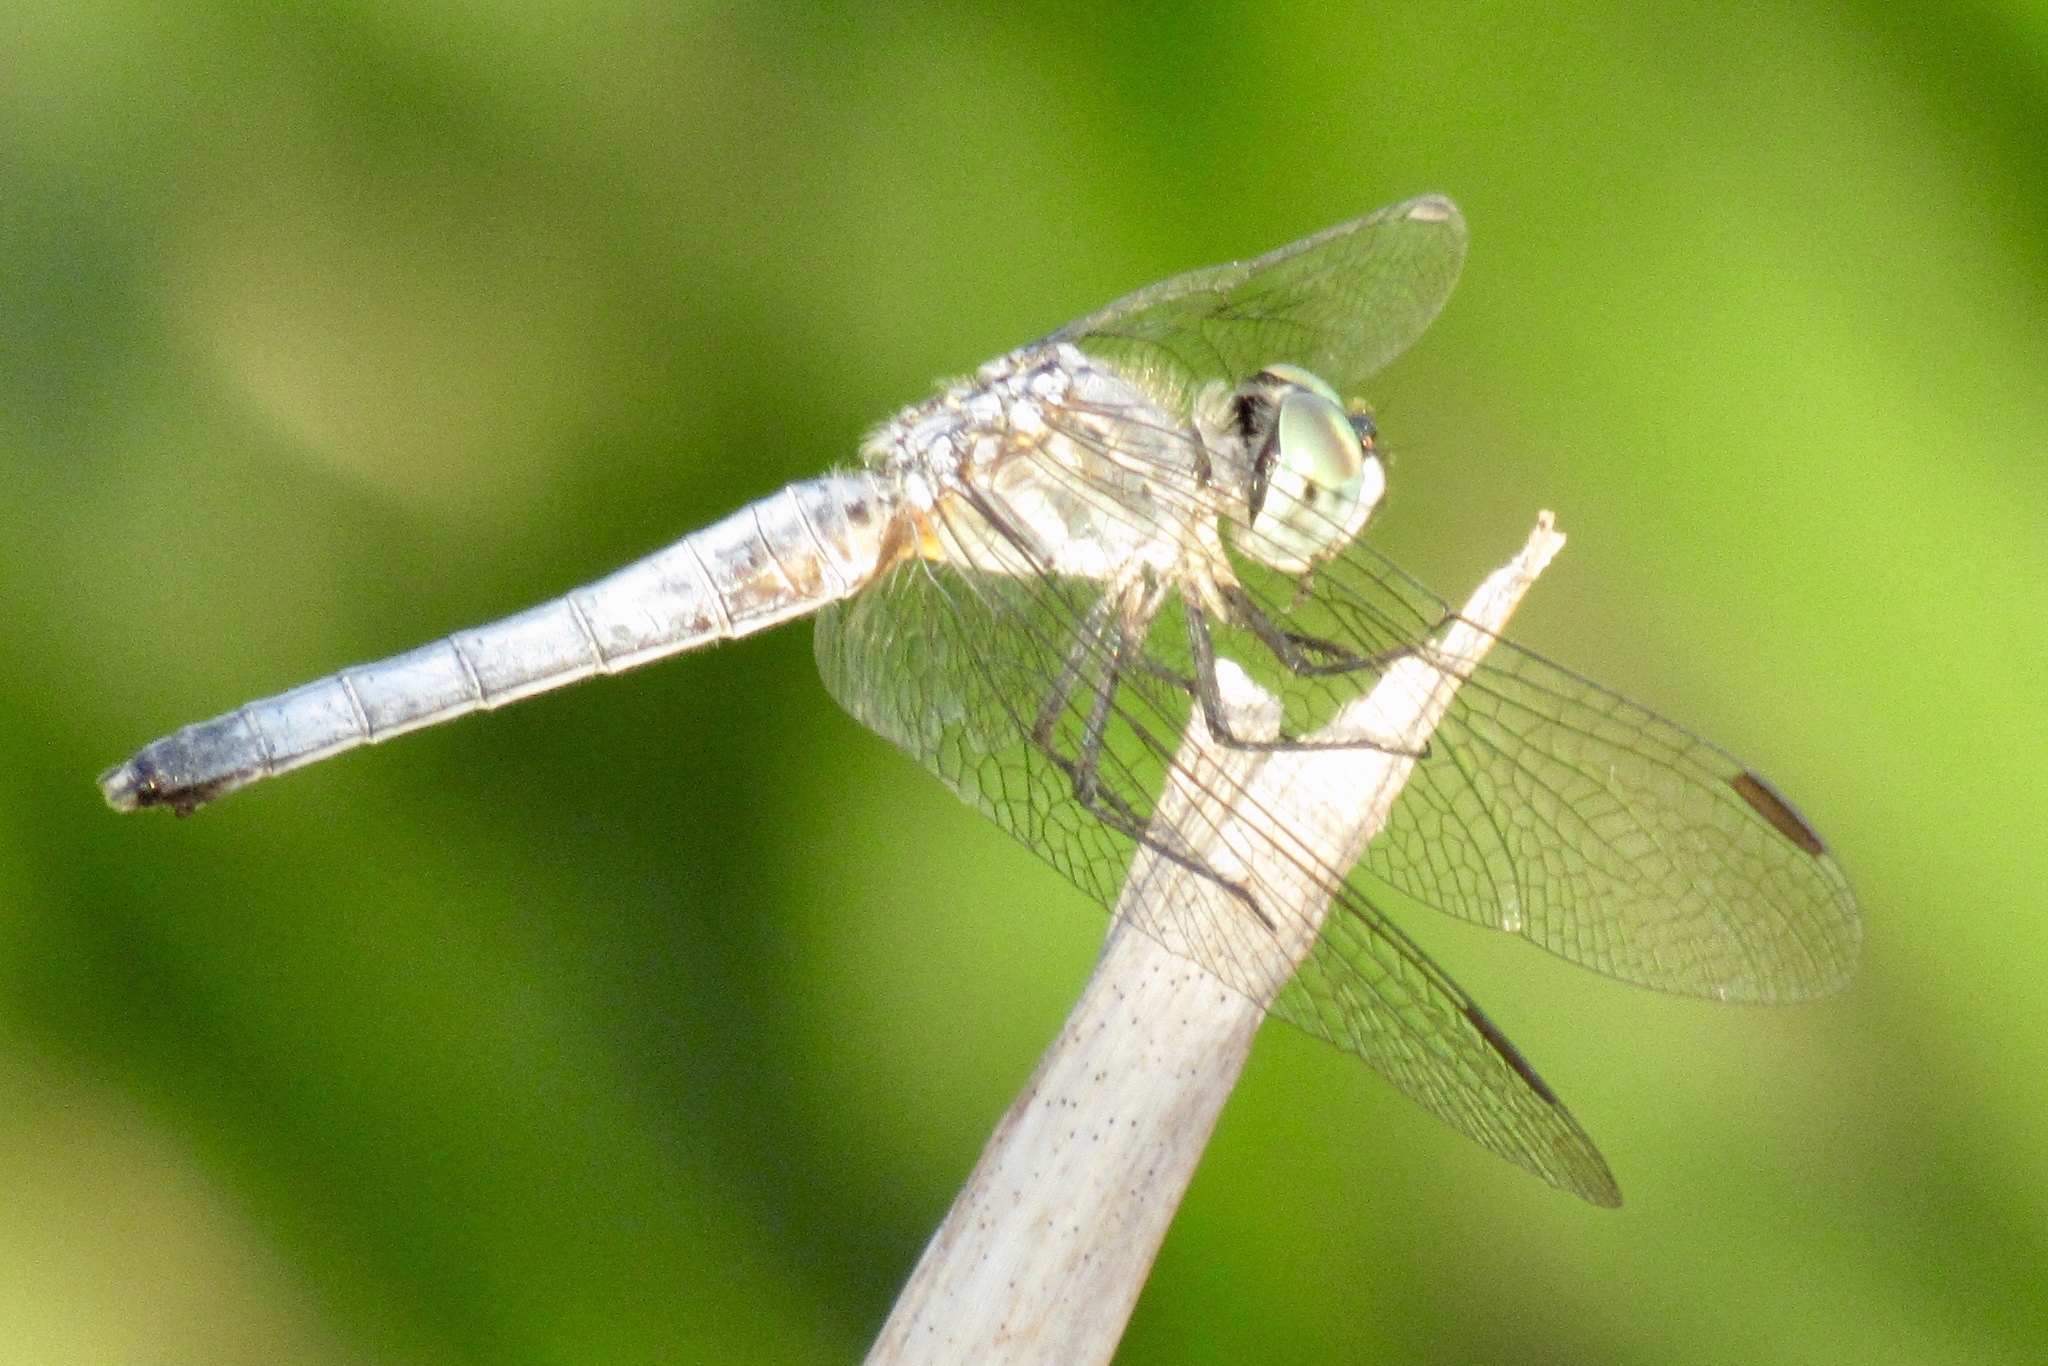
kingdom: Animalia
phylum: Arthropoda
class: Insecta
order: Odonata
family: Libellulidae
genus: Pachydiplax
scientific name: Pachydiplax longipennis
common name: Blue dasher
